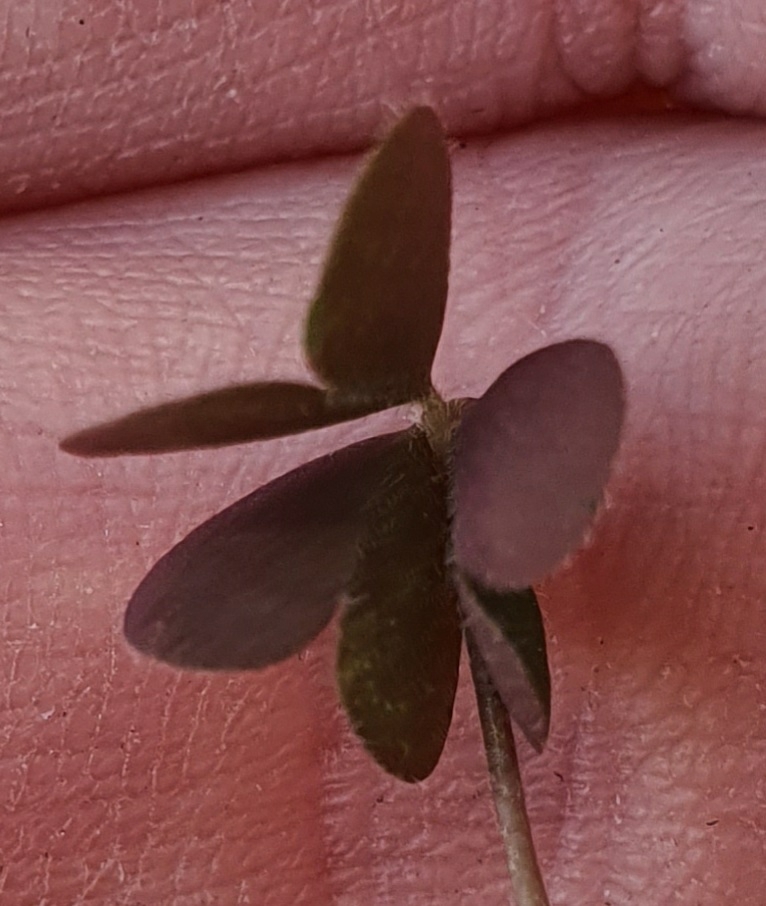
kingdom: Plantae
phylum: Tracheophyta
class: Magnoliopsida
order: Oxalidales
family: Oxalidaceae
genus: Oxalis
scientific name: Oxalis corniculata
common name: Procumbent yellow-sorrel
